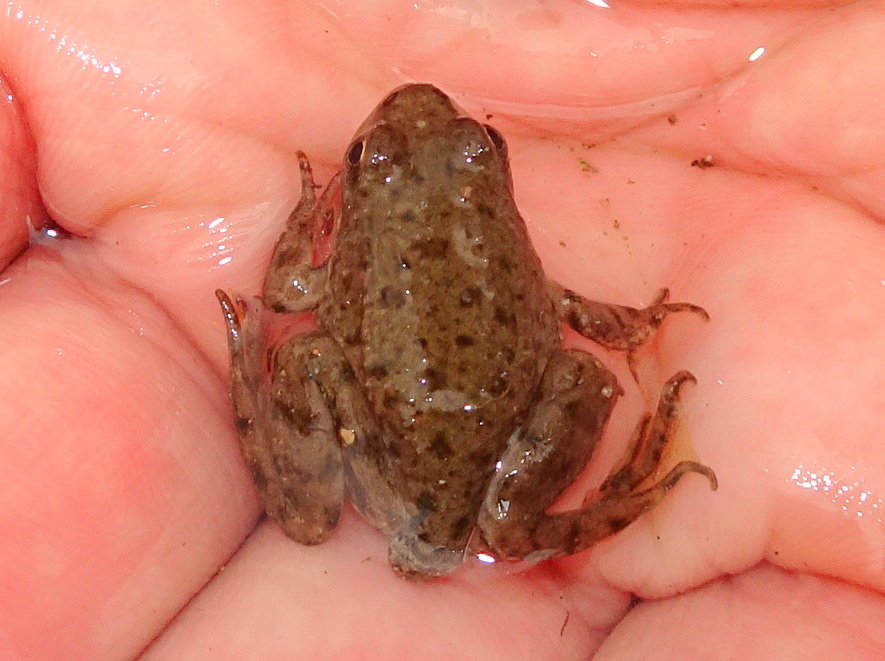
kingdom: Animalia
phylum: Chordata
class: Amphibia
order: Anura
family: Ranidae
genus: Pelophylax
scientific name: Pelophylax
